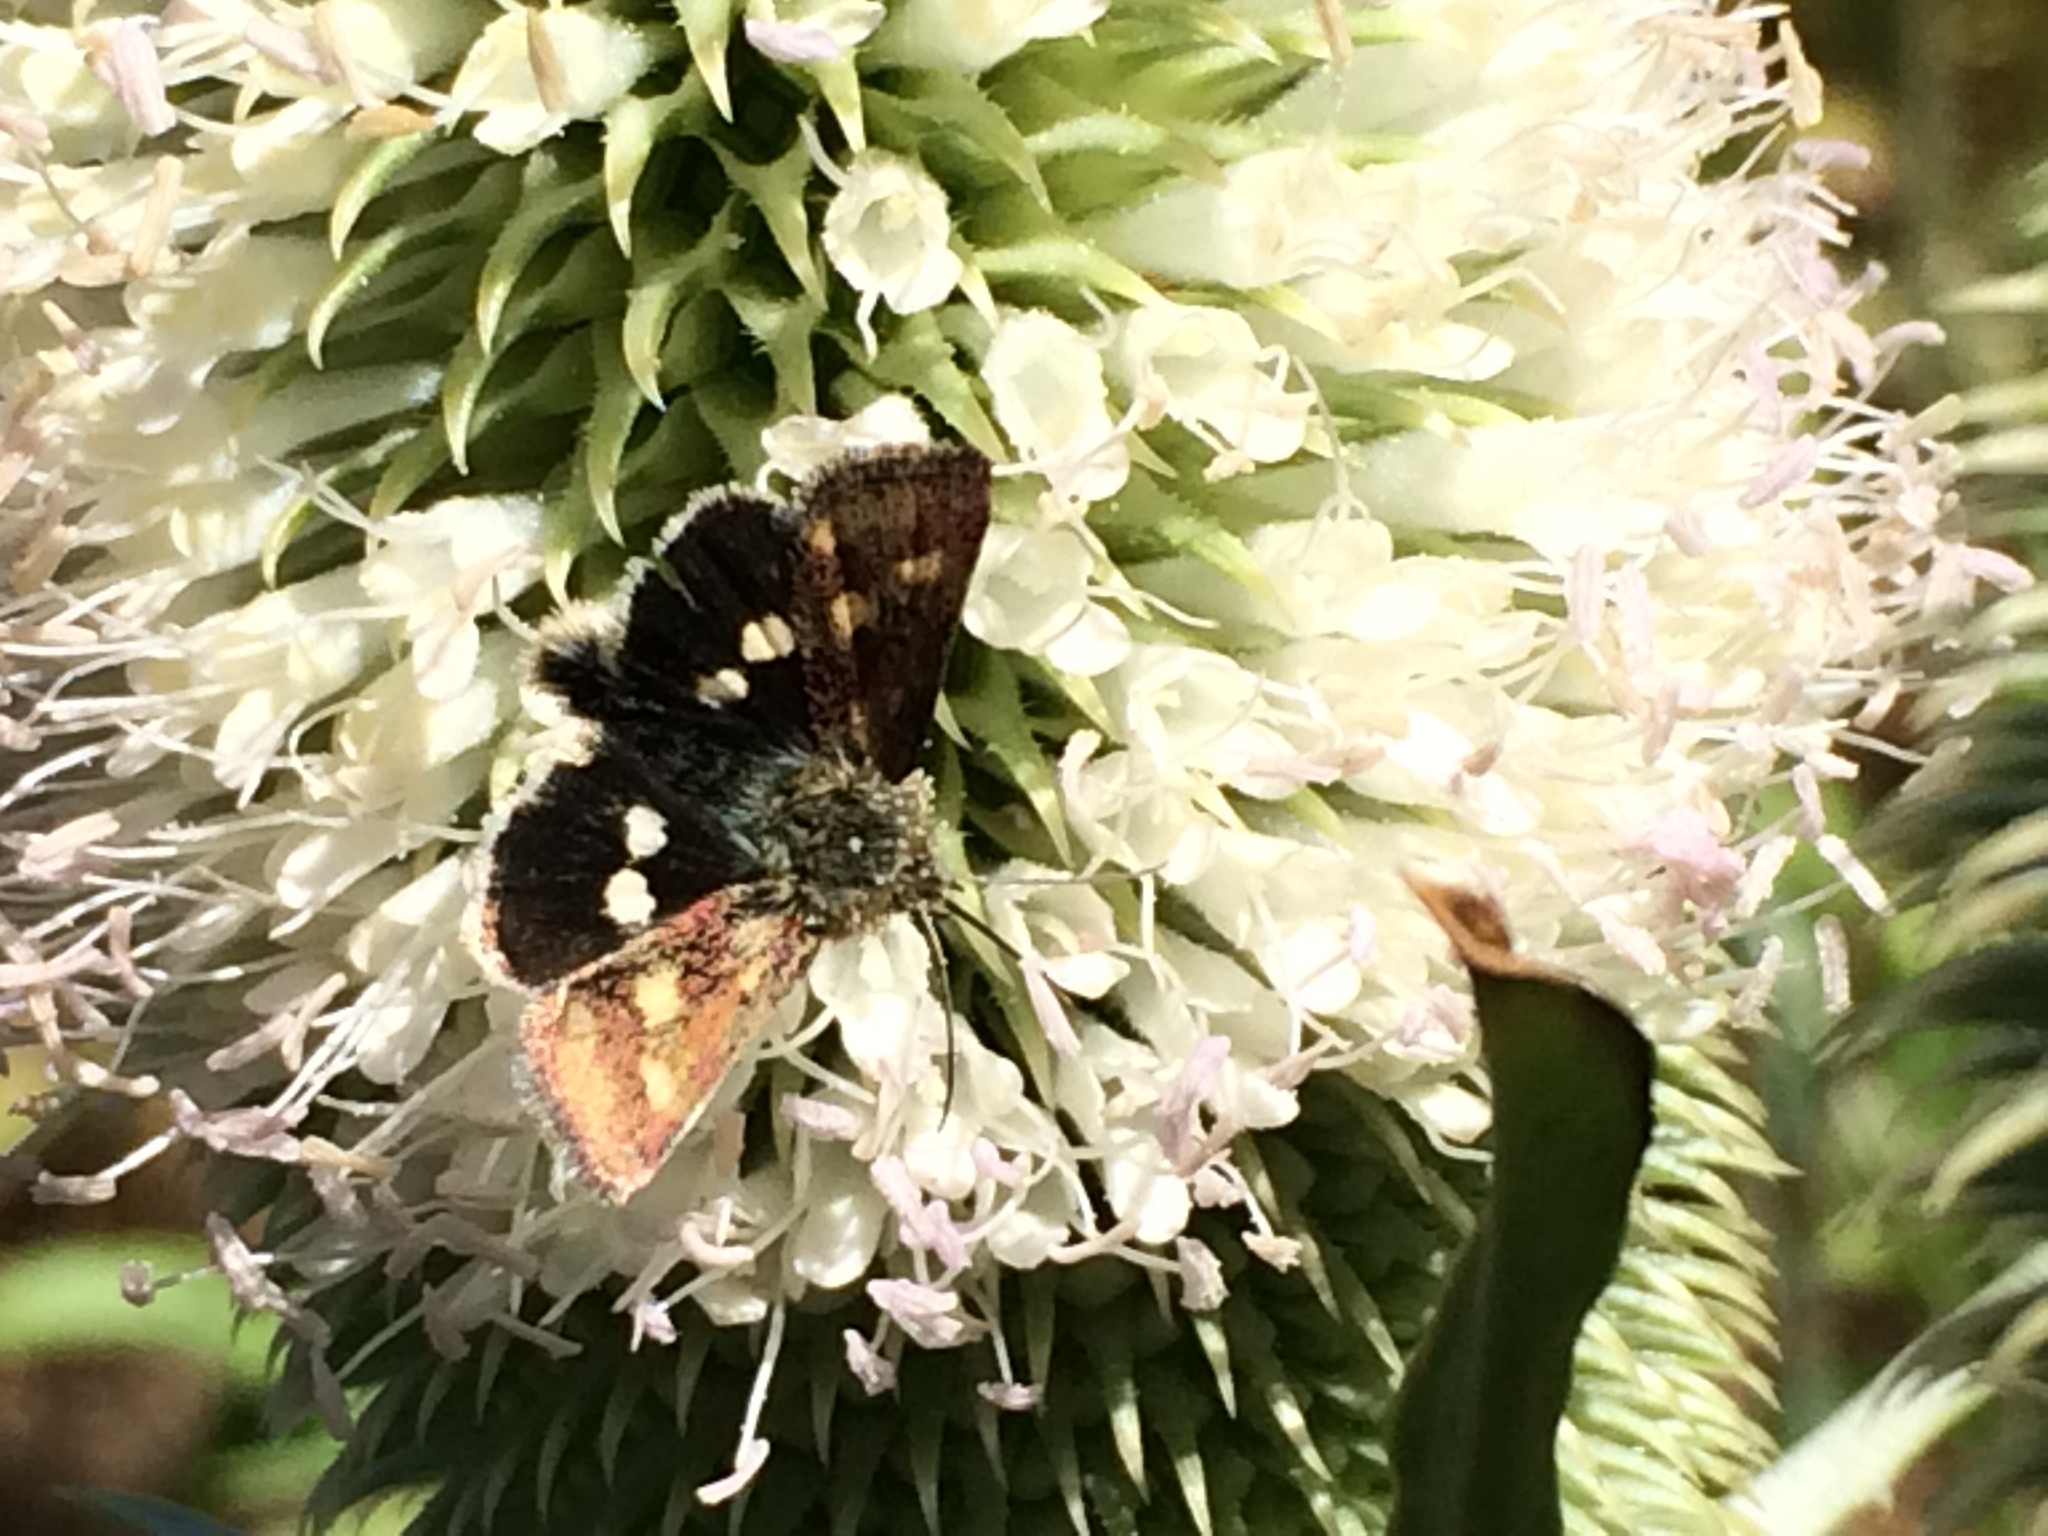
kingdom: Animalia
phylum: Arthropoda
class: Insecta
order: Lepidoptera
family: Noctuidae
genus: Heliothodes
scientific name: Heliothodes diminutiva
